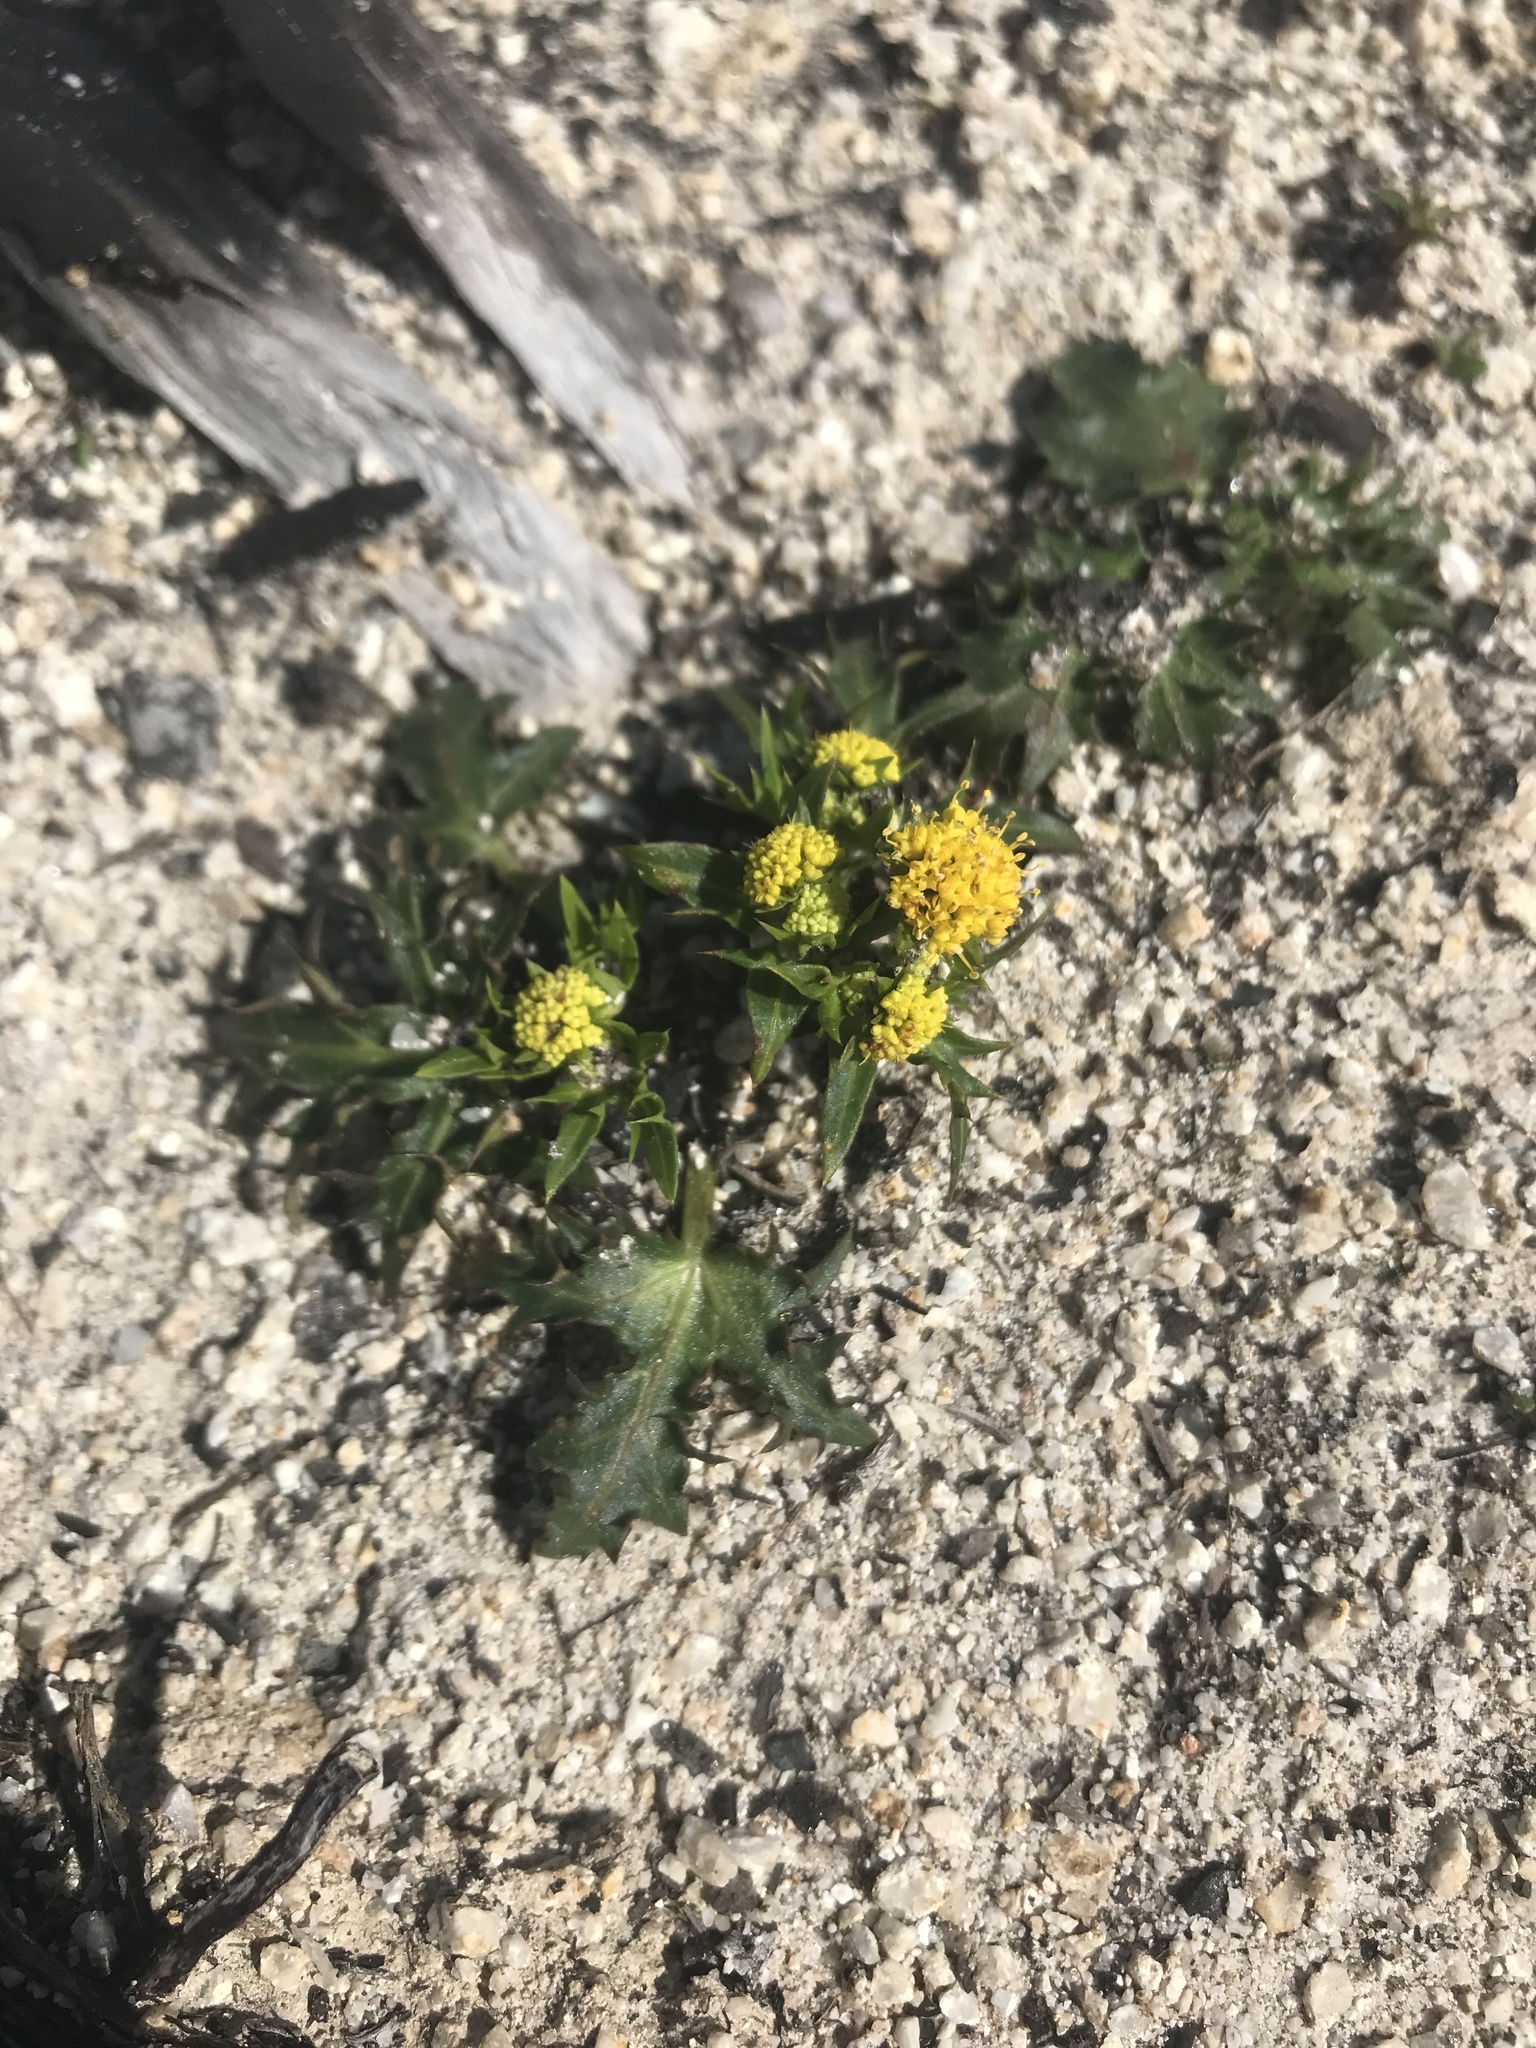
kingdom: Plantae
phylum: Tracheophyta
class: Magnoliopsida
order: Apiales
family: Apiaceae
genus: Sanicula
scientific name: Sanicula laciniata
